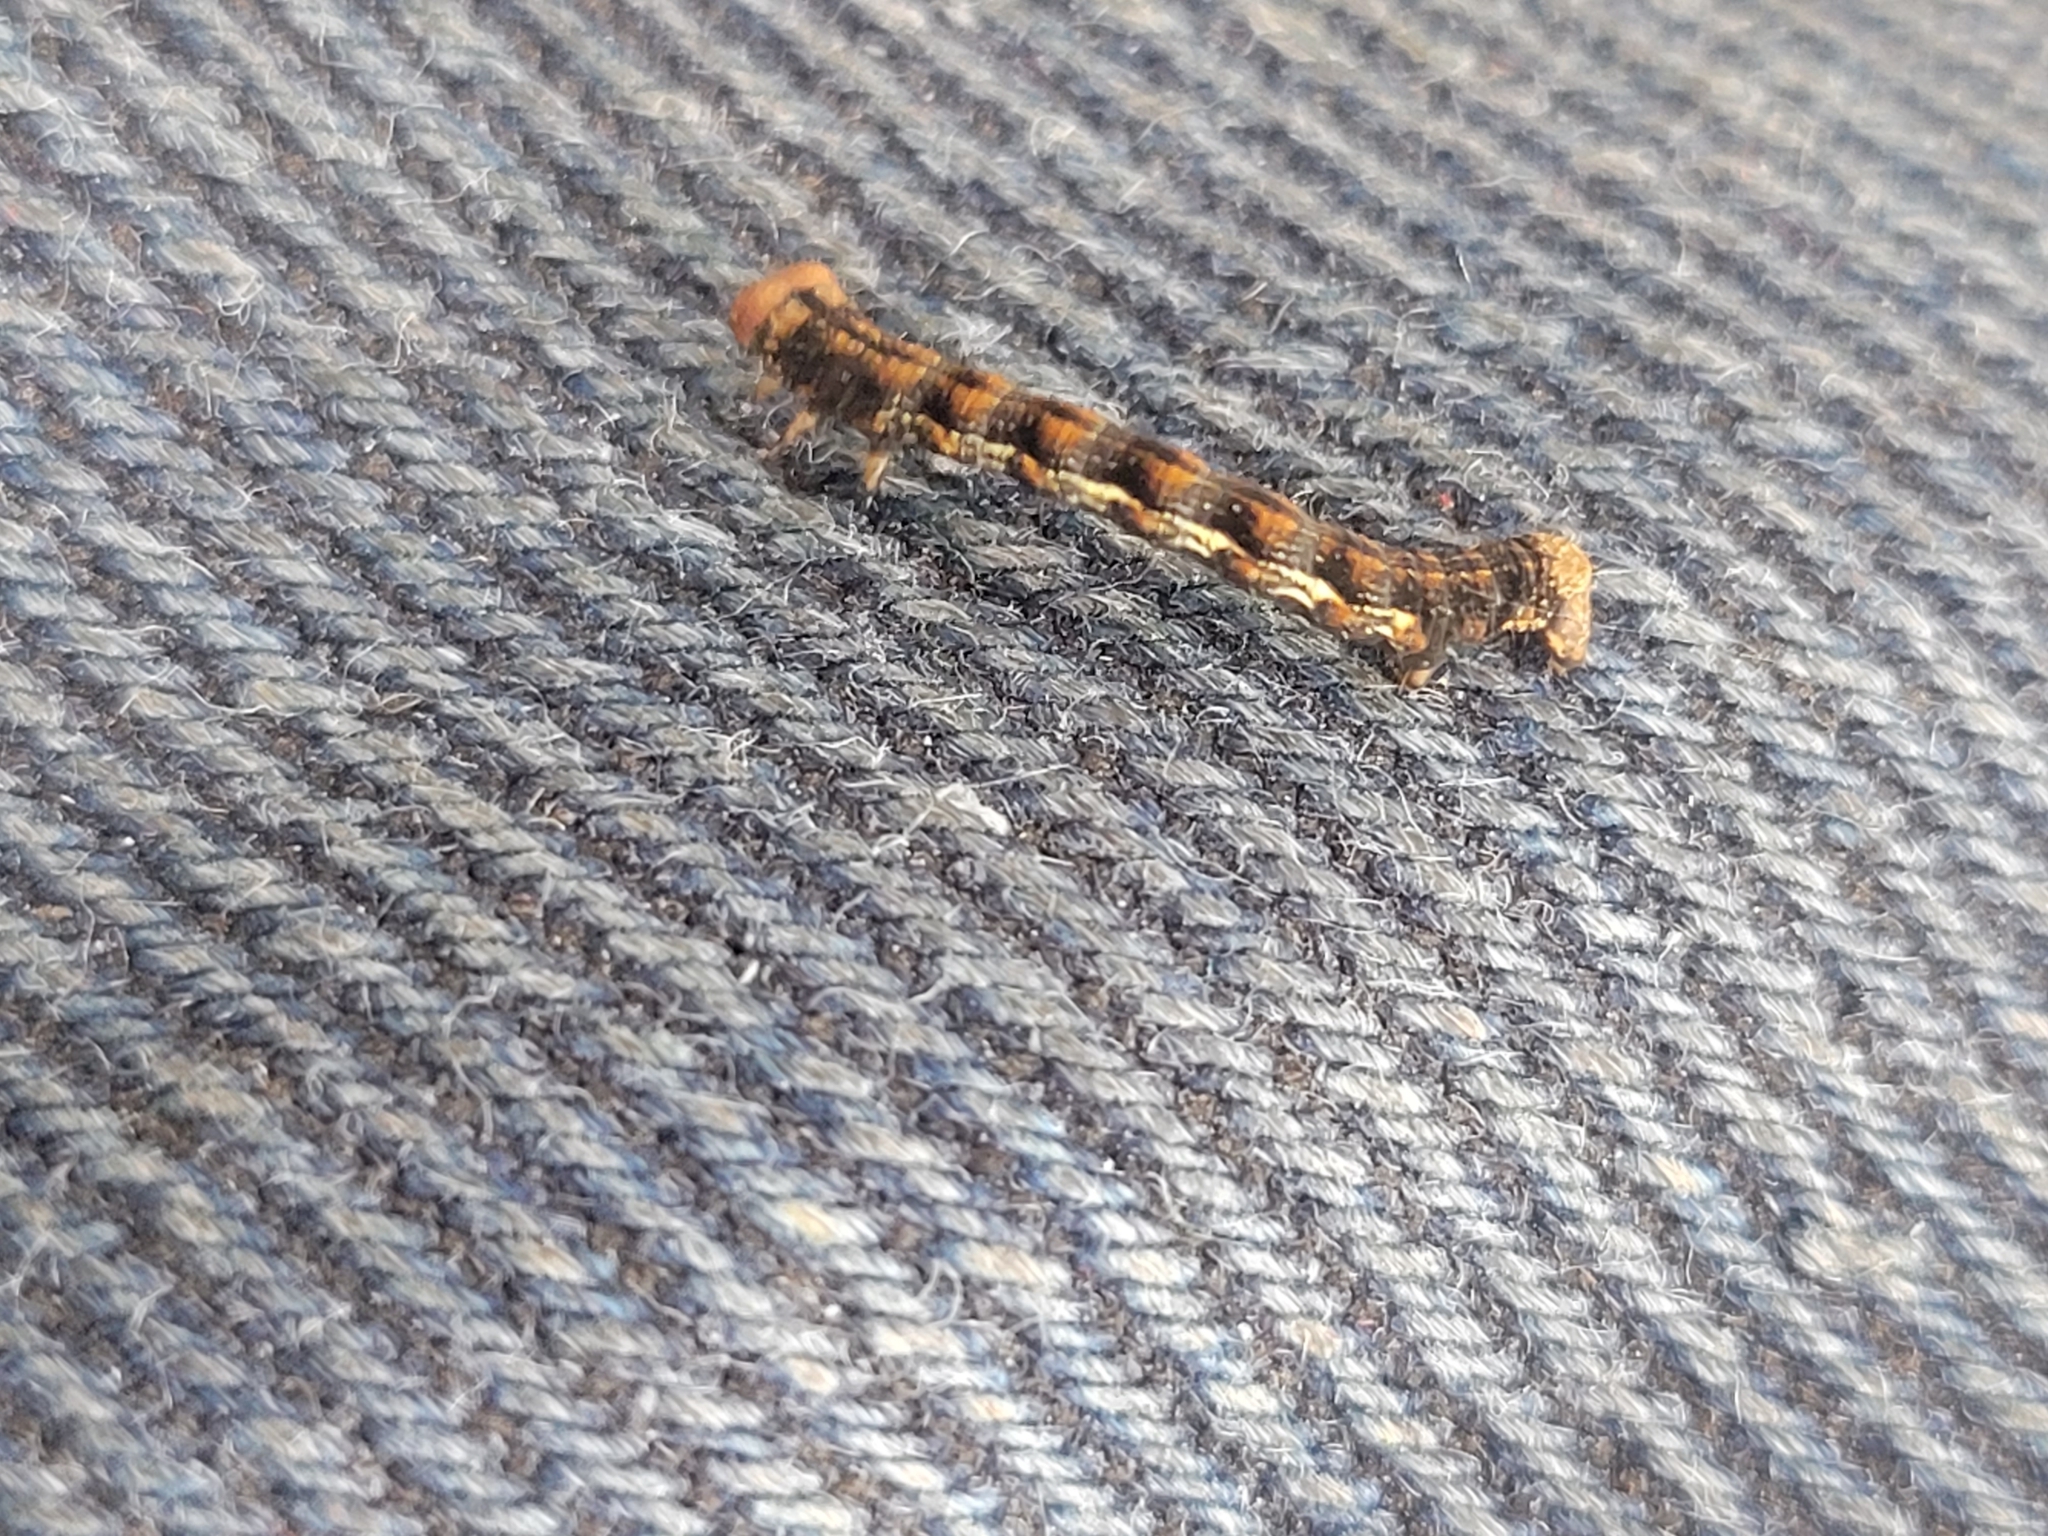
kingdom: Animalia
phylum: Arthropoda
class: Insecta
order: Lepidoptera
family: Geometridae
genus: Erannis
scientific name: Erannis defoliaria
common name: Mottled umber
